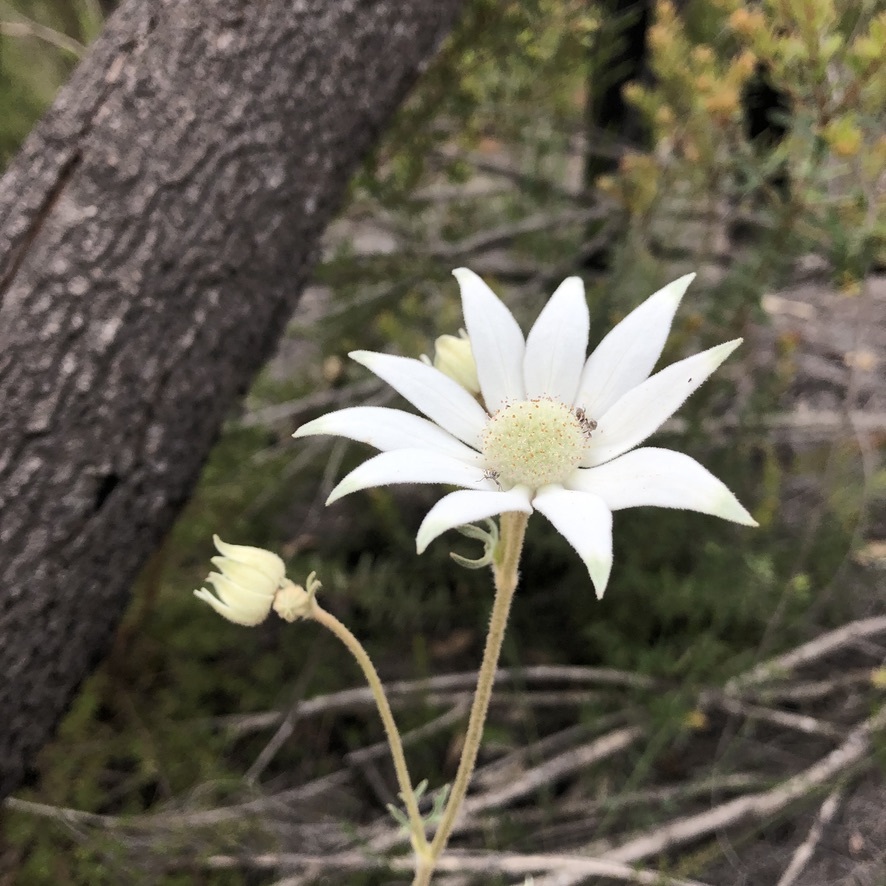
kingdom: Plantae
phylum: Tracheophyta
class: Magnoliopsida
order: Apiales
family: Apiaceae
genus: Actinotus
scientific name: Actinotus helianthi
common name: Flannel-flower
